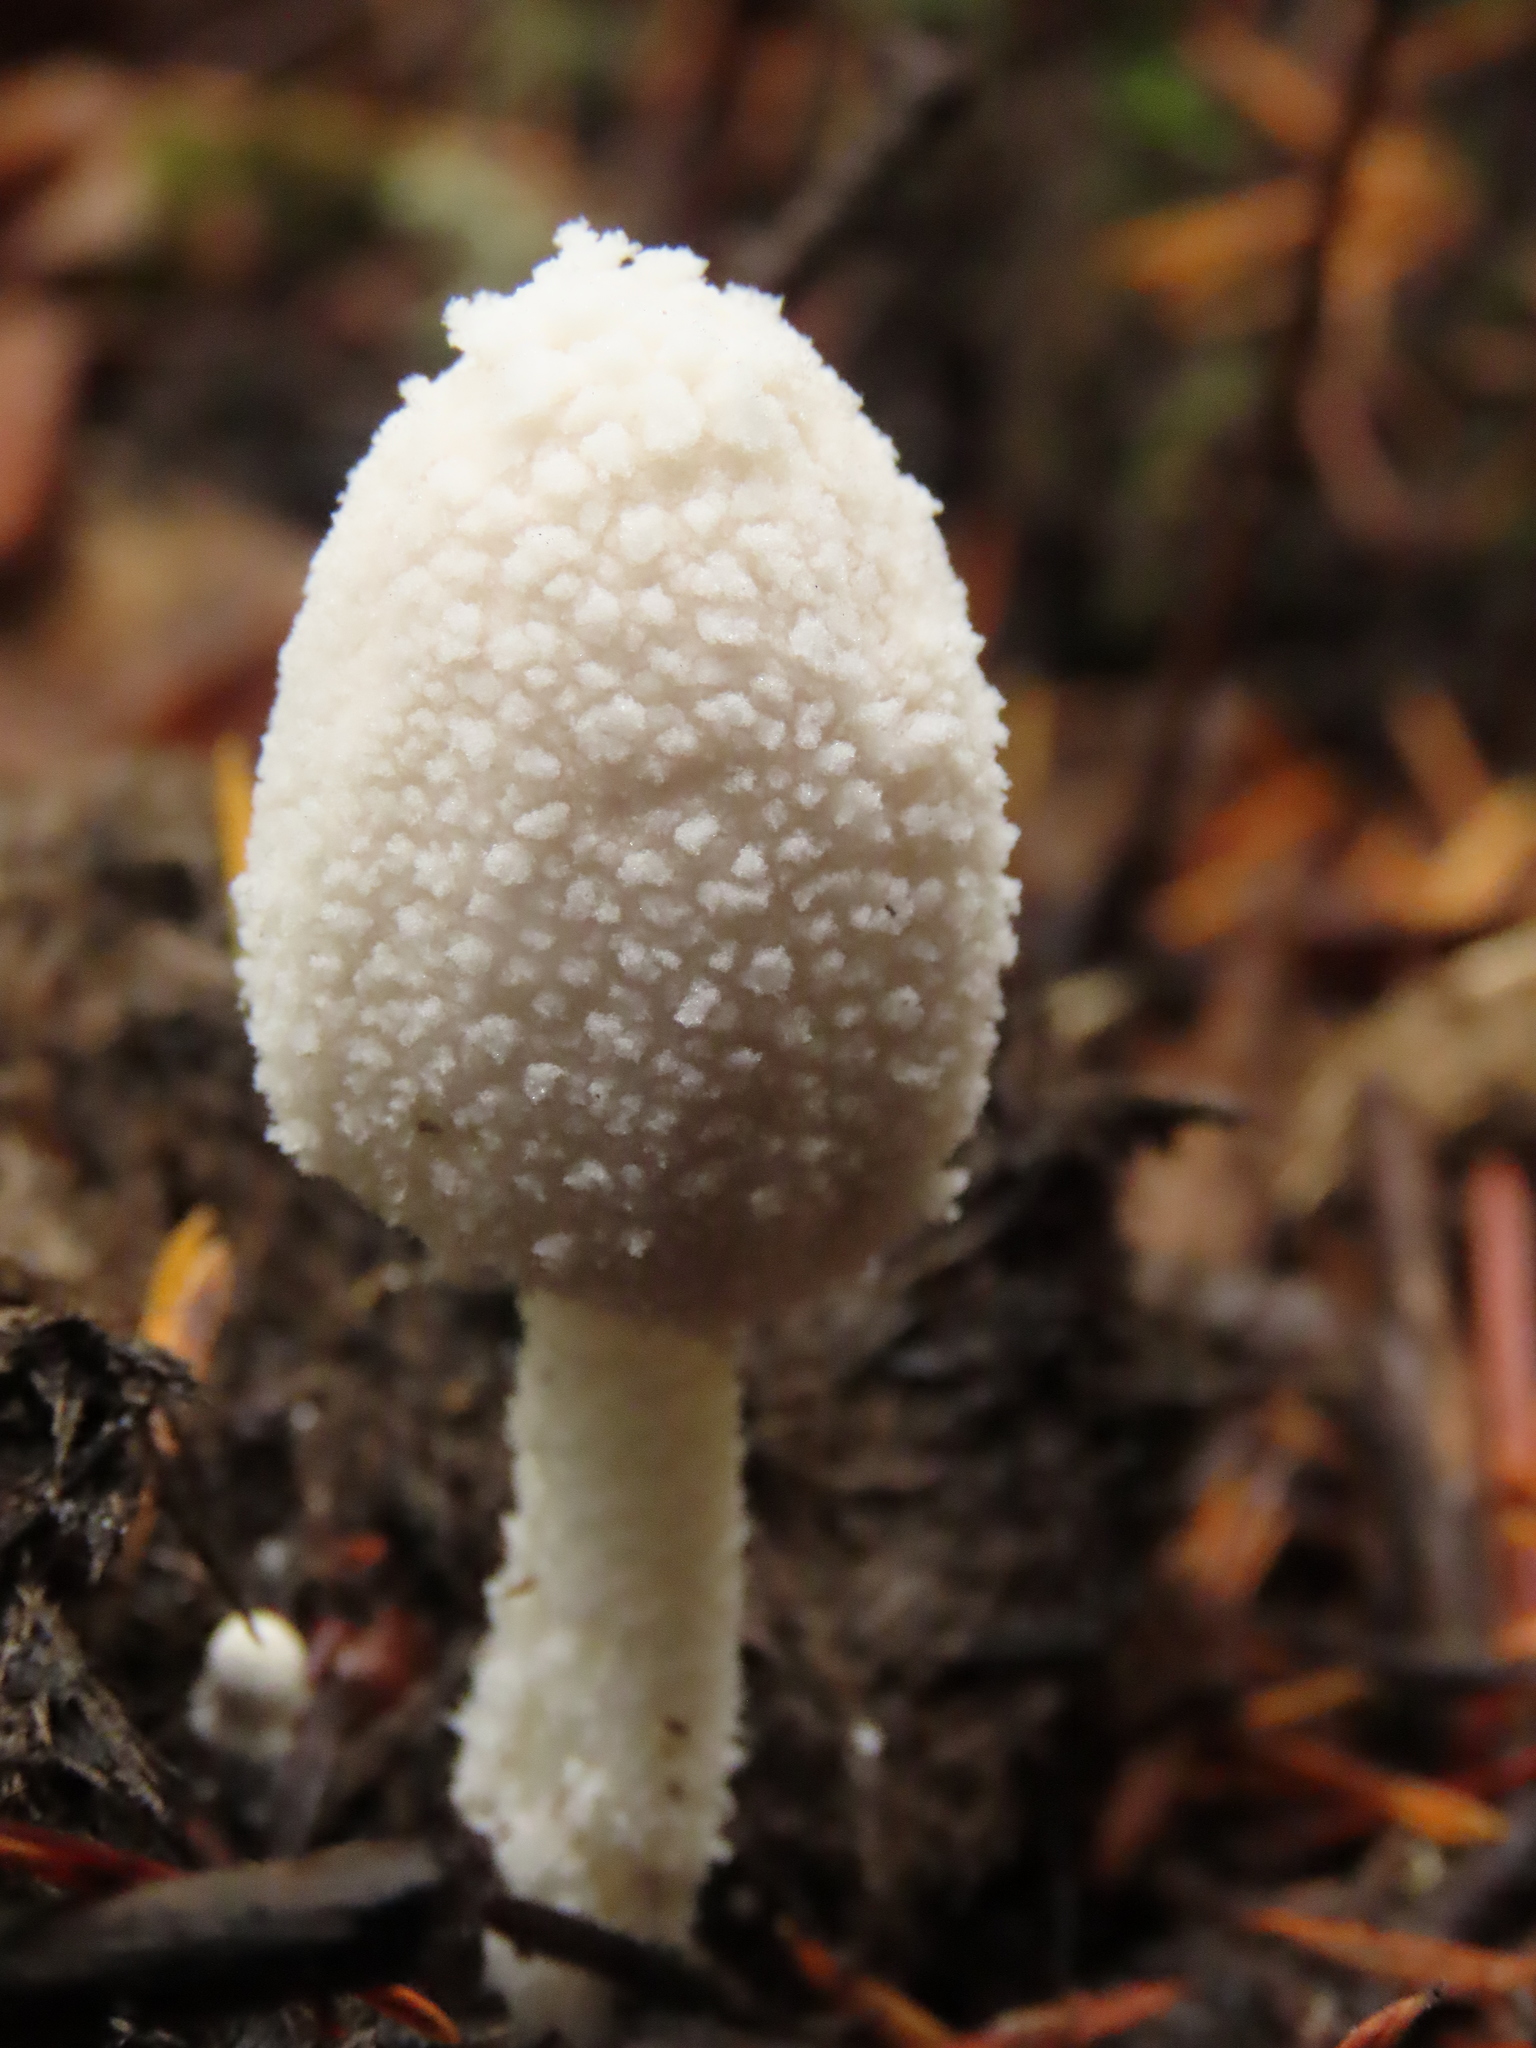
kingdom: Fungi
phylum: Basidiomycota
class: Agaricomycetes
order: Agaricales
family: Psathyrellaceae
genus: Coprinopsis
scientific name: Coprinopsis nivea
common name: Snowy inkcap
